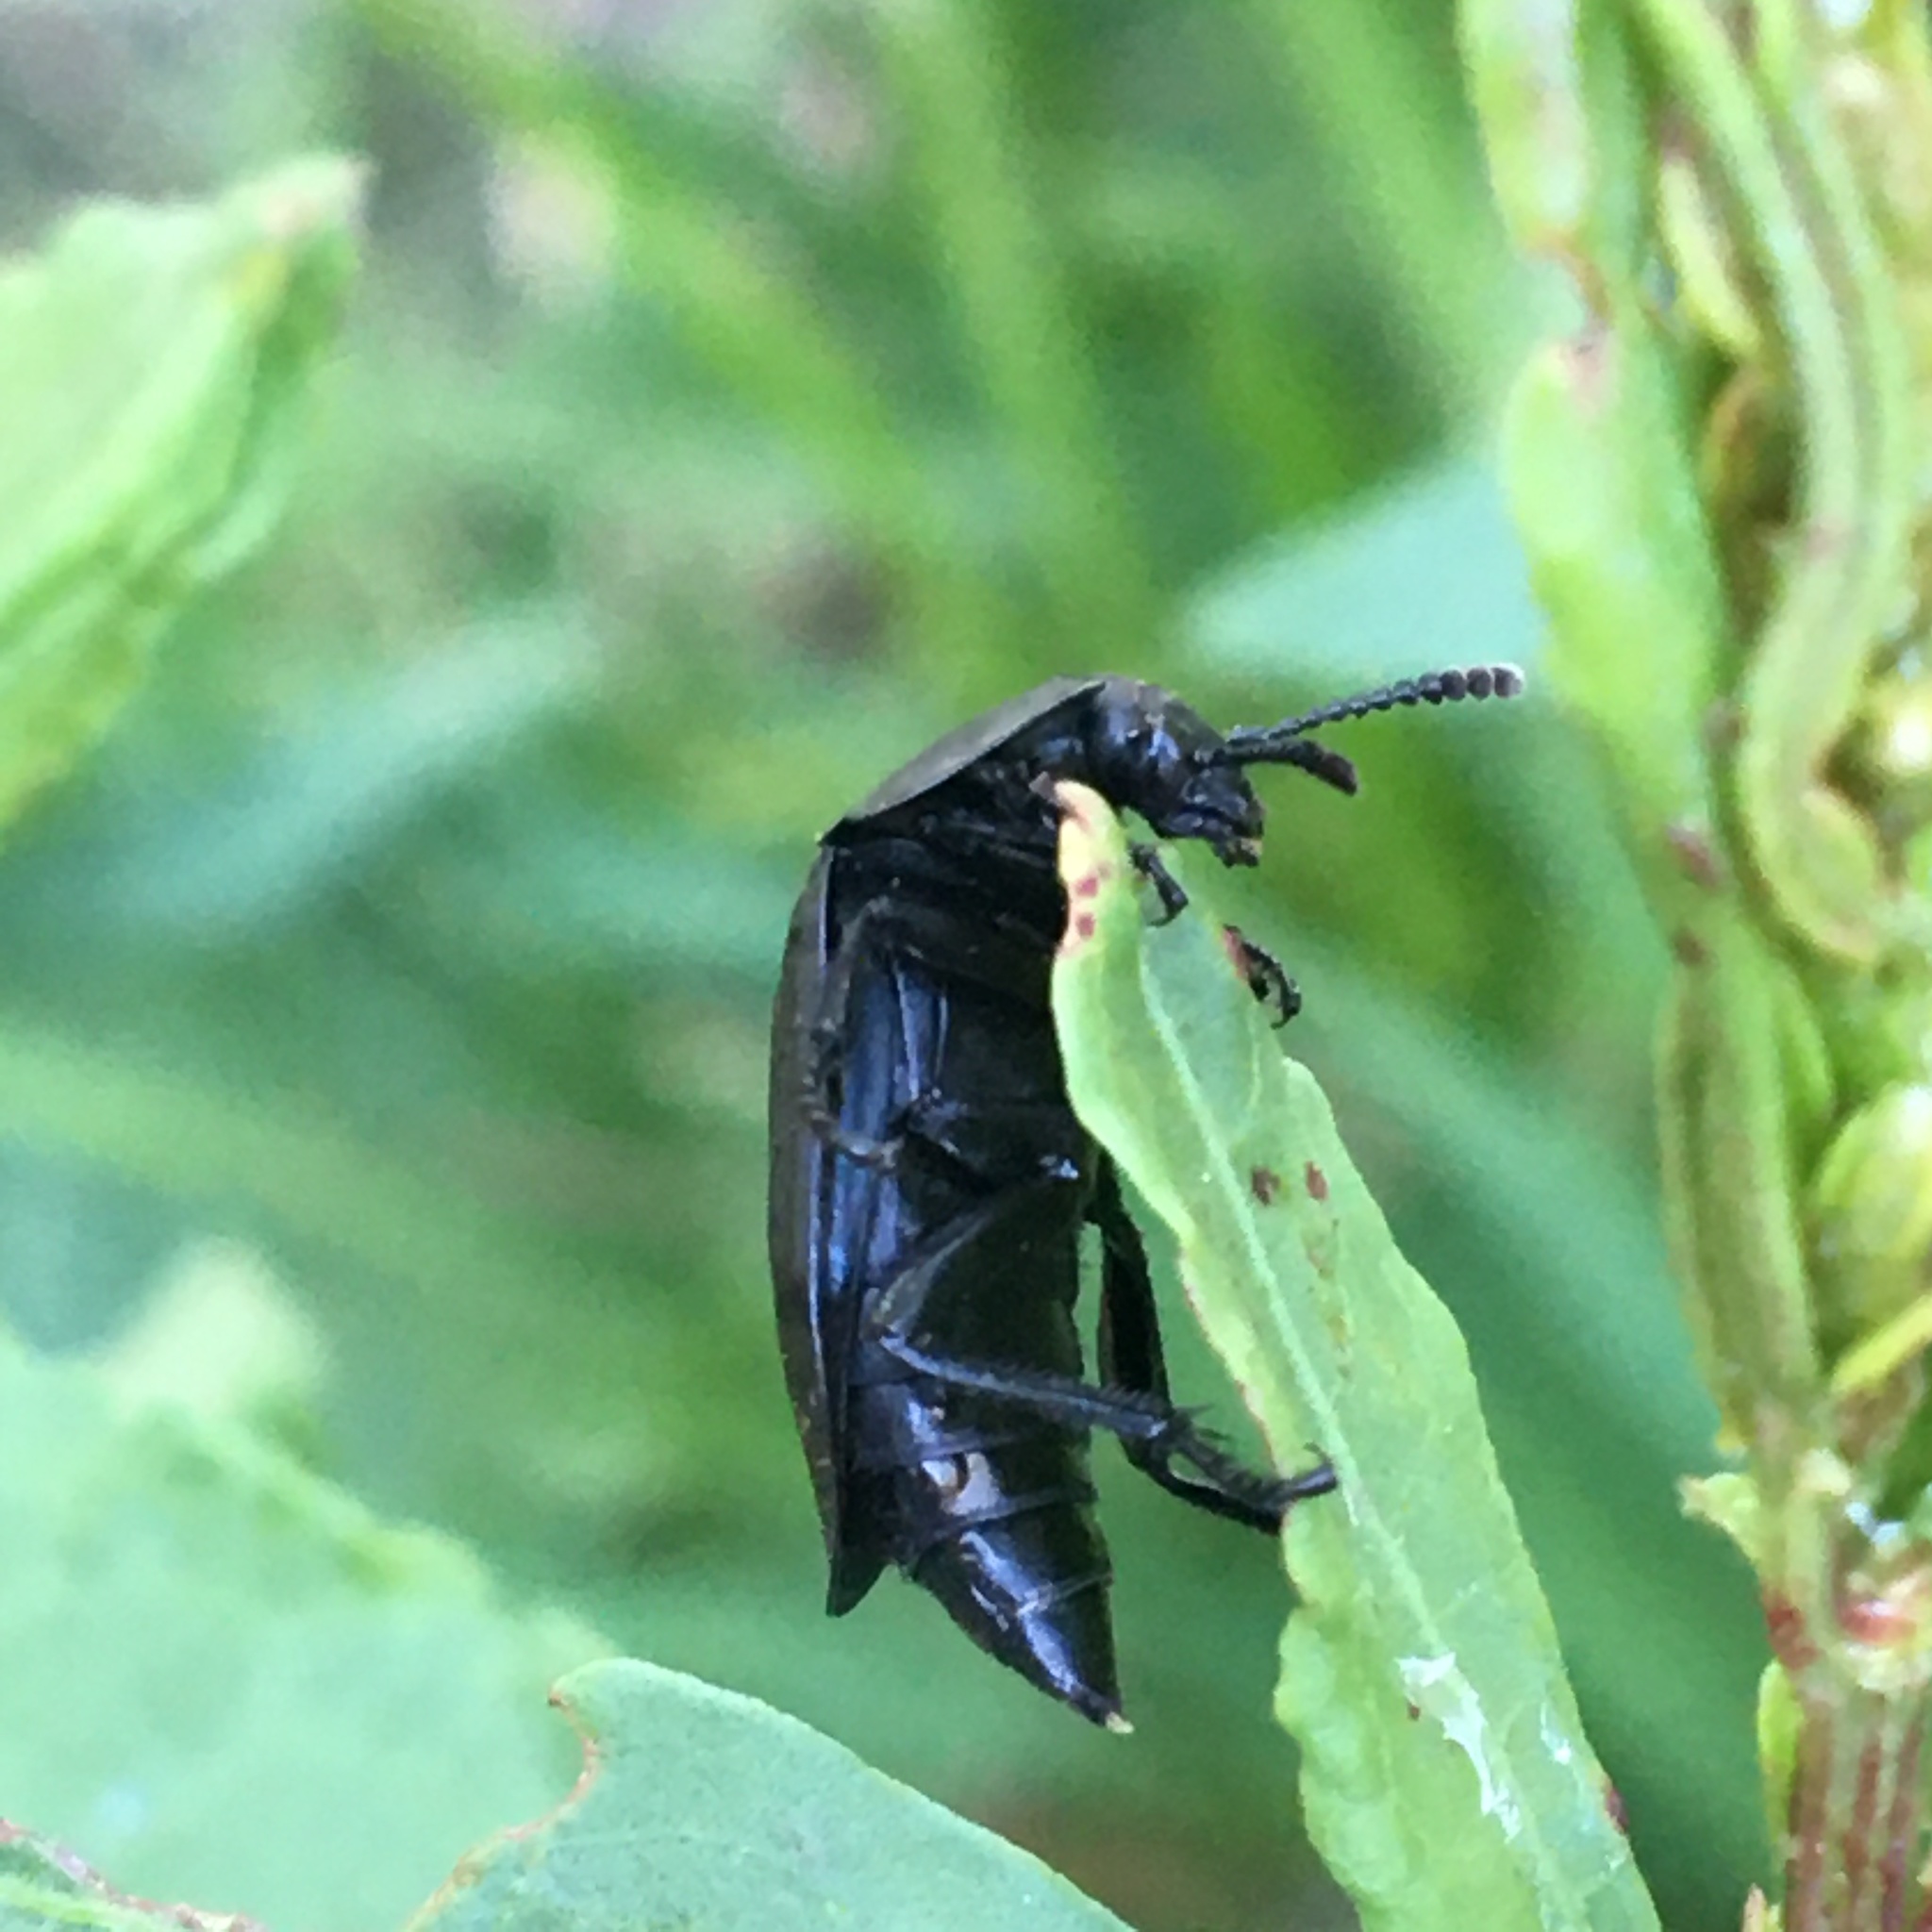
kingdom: Animalia
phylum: Arthropoda
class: Insecta
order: Coleoptera
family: Staphylinidae
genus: Heterosilpha
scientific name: Heterosilpha ramosa
